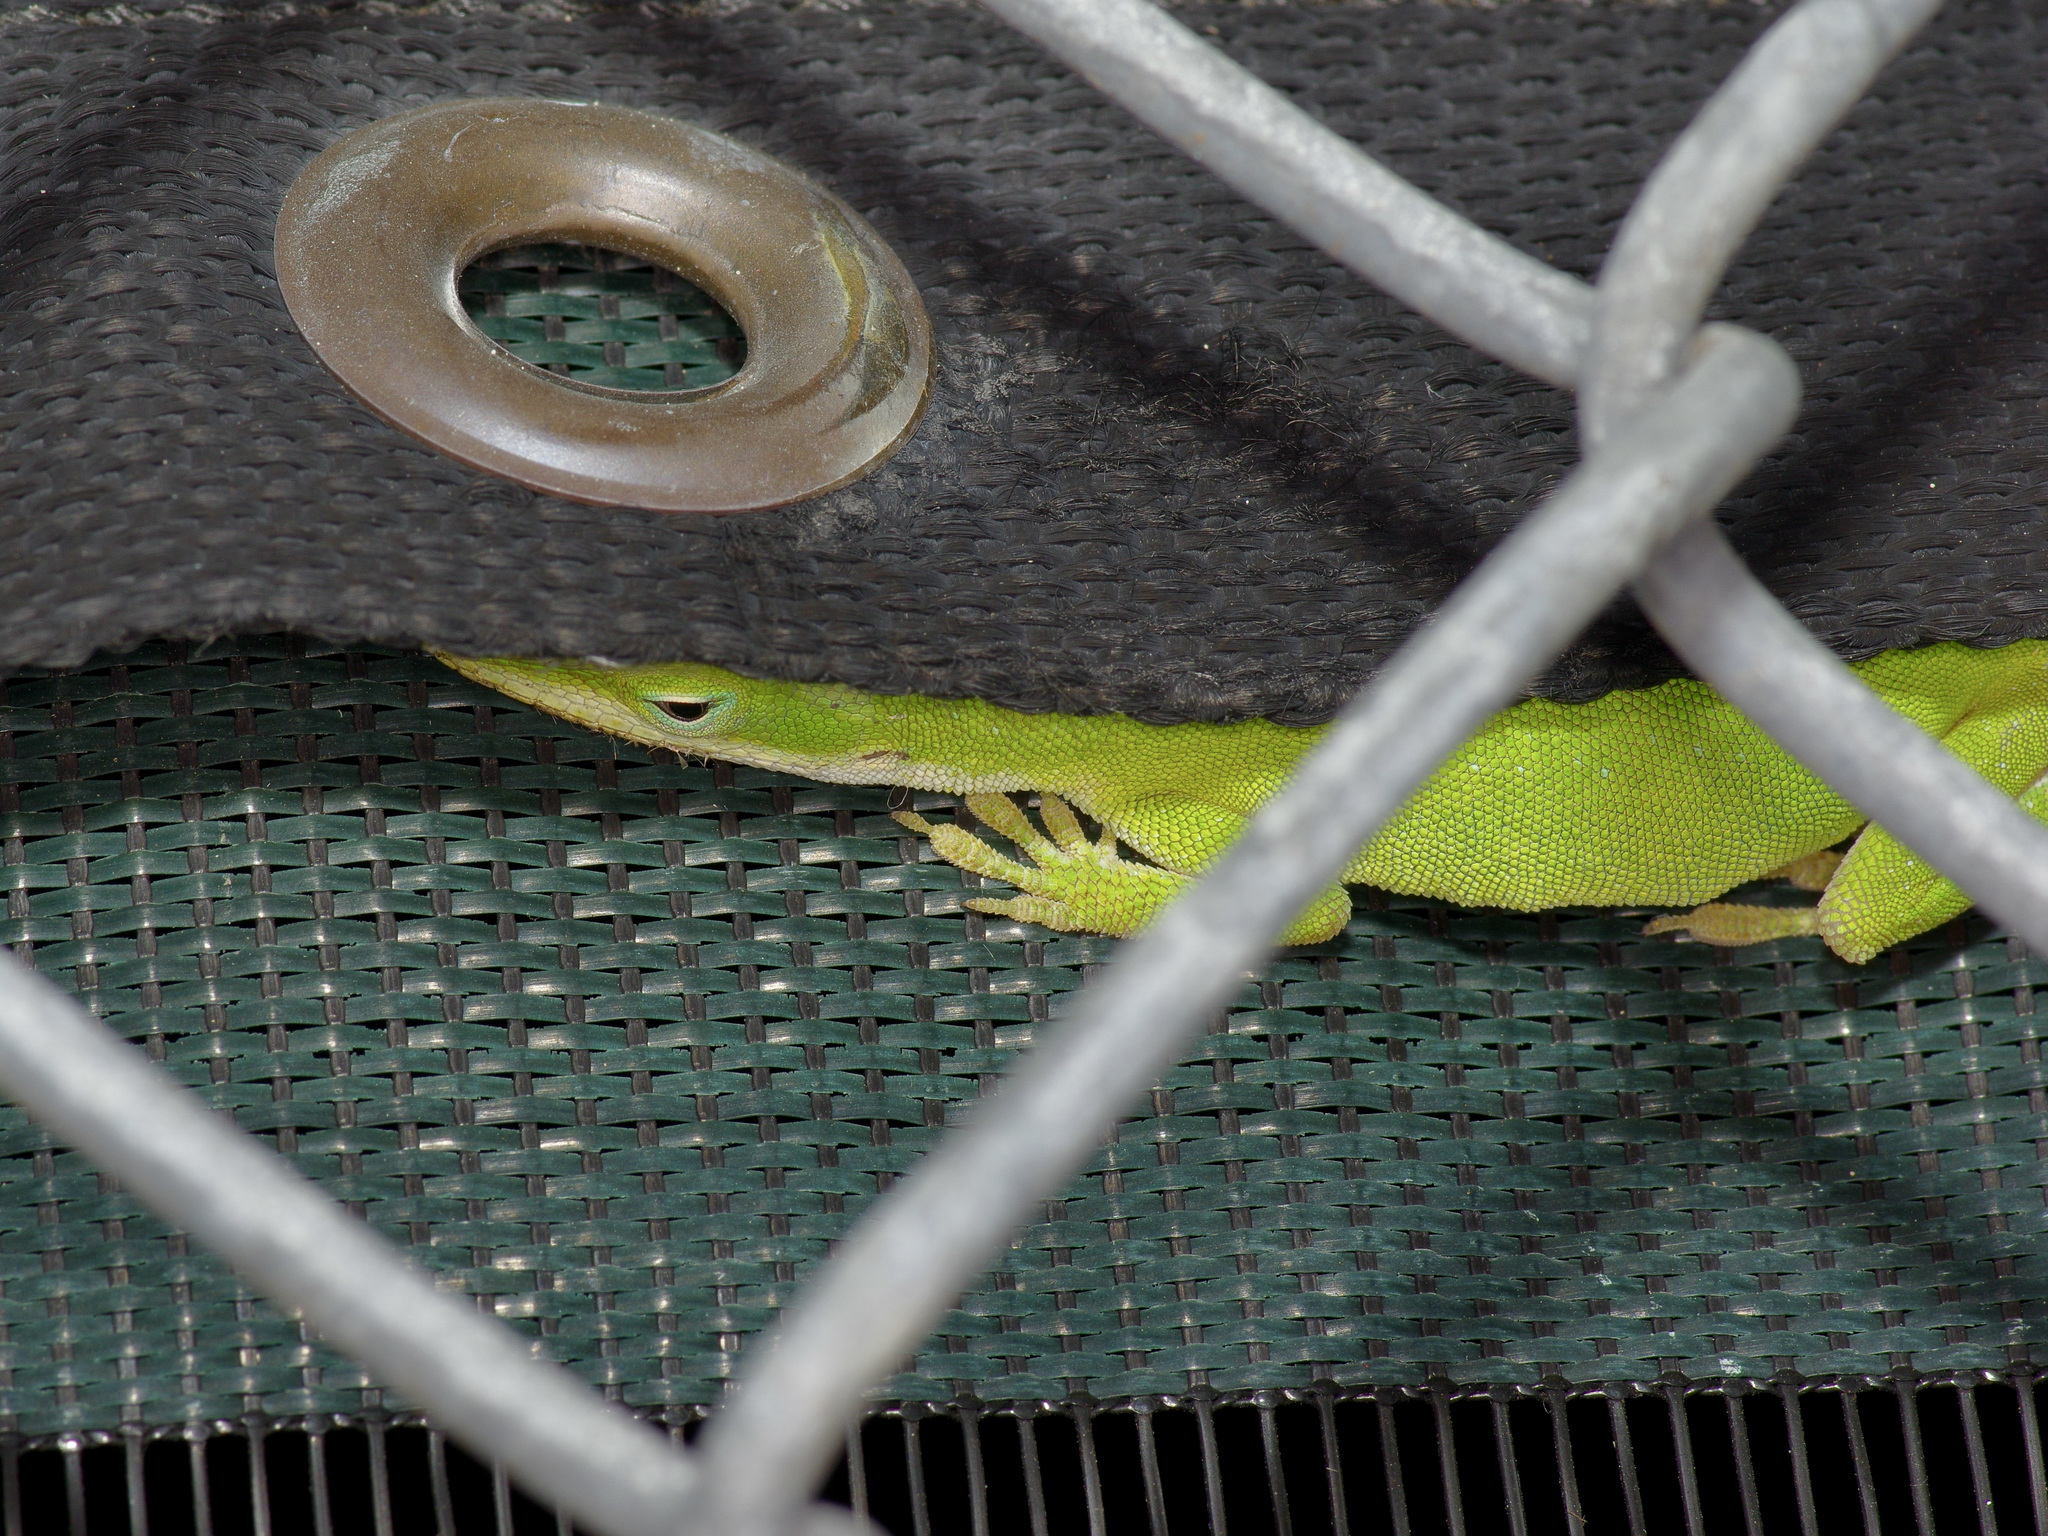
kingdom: Animalia
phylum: Chordata
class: Squamata
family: Dactyloidae
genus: Anolis
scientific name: Anolis carolinensis
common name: Green anole
